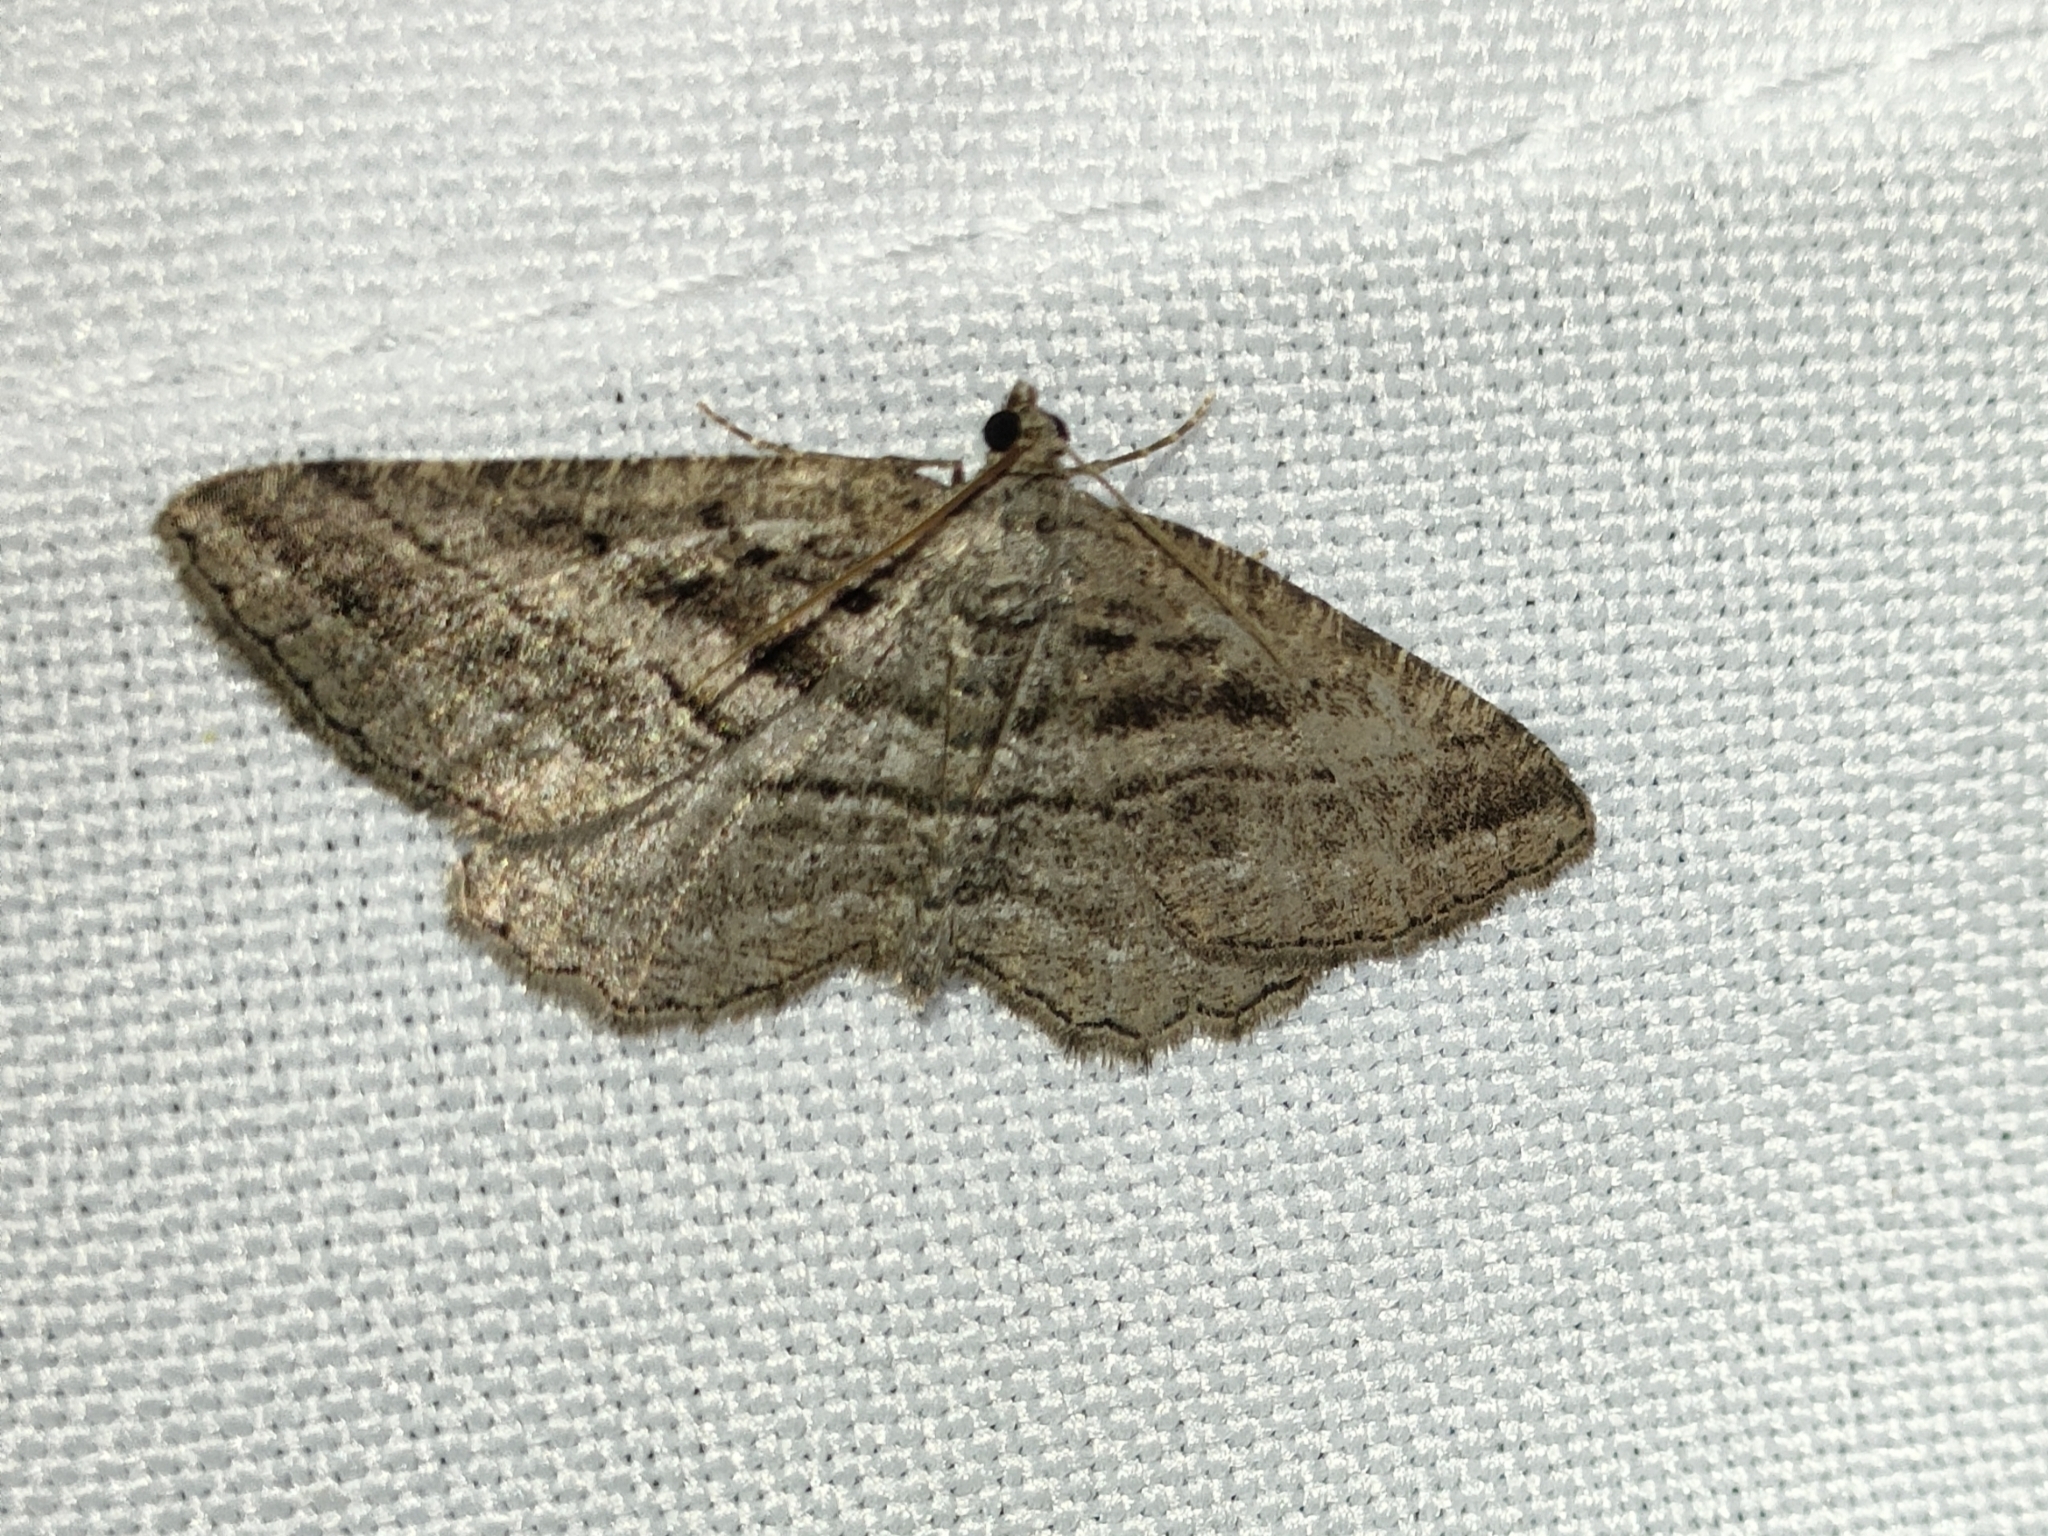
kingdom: Animalia
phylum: Arthropoda
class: Insecta
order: Lepidoptera
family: Geometridae
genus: Rhoptria
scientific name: Rhoptria asperaria
